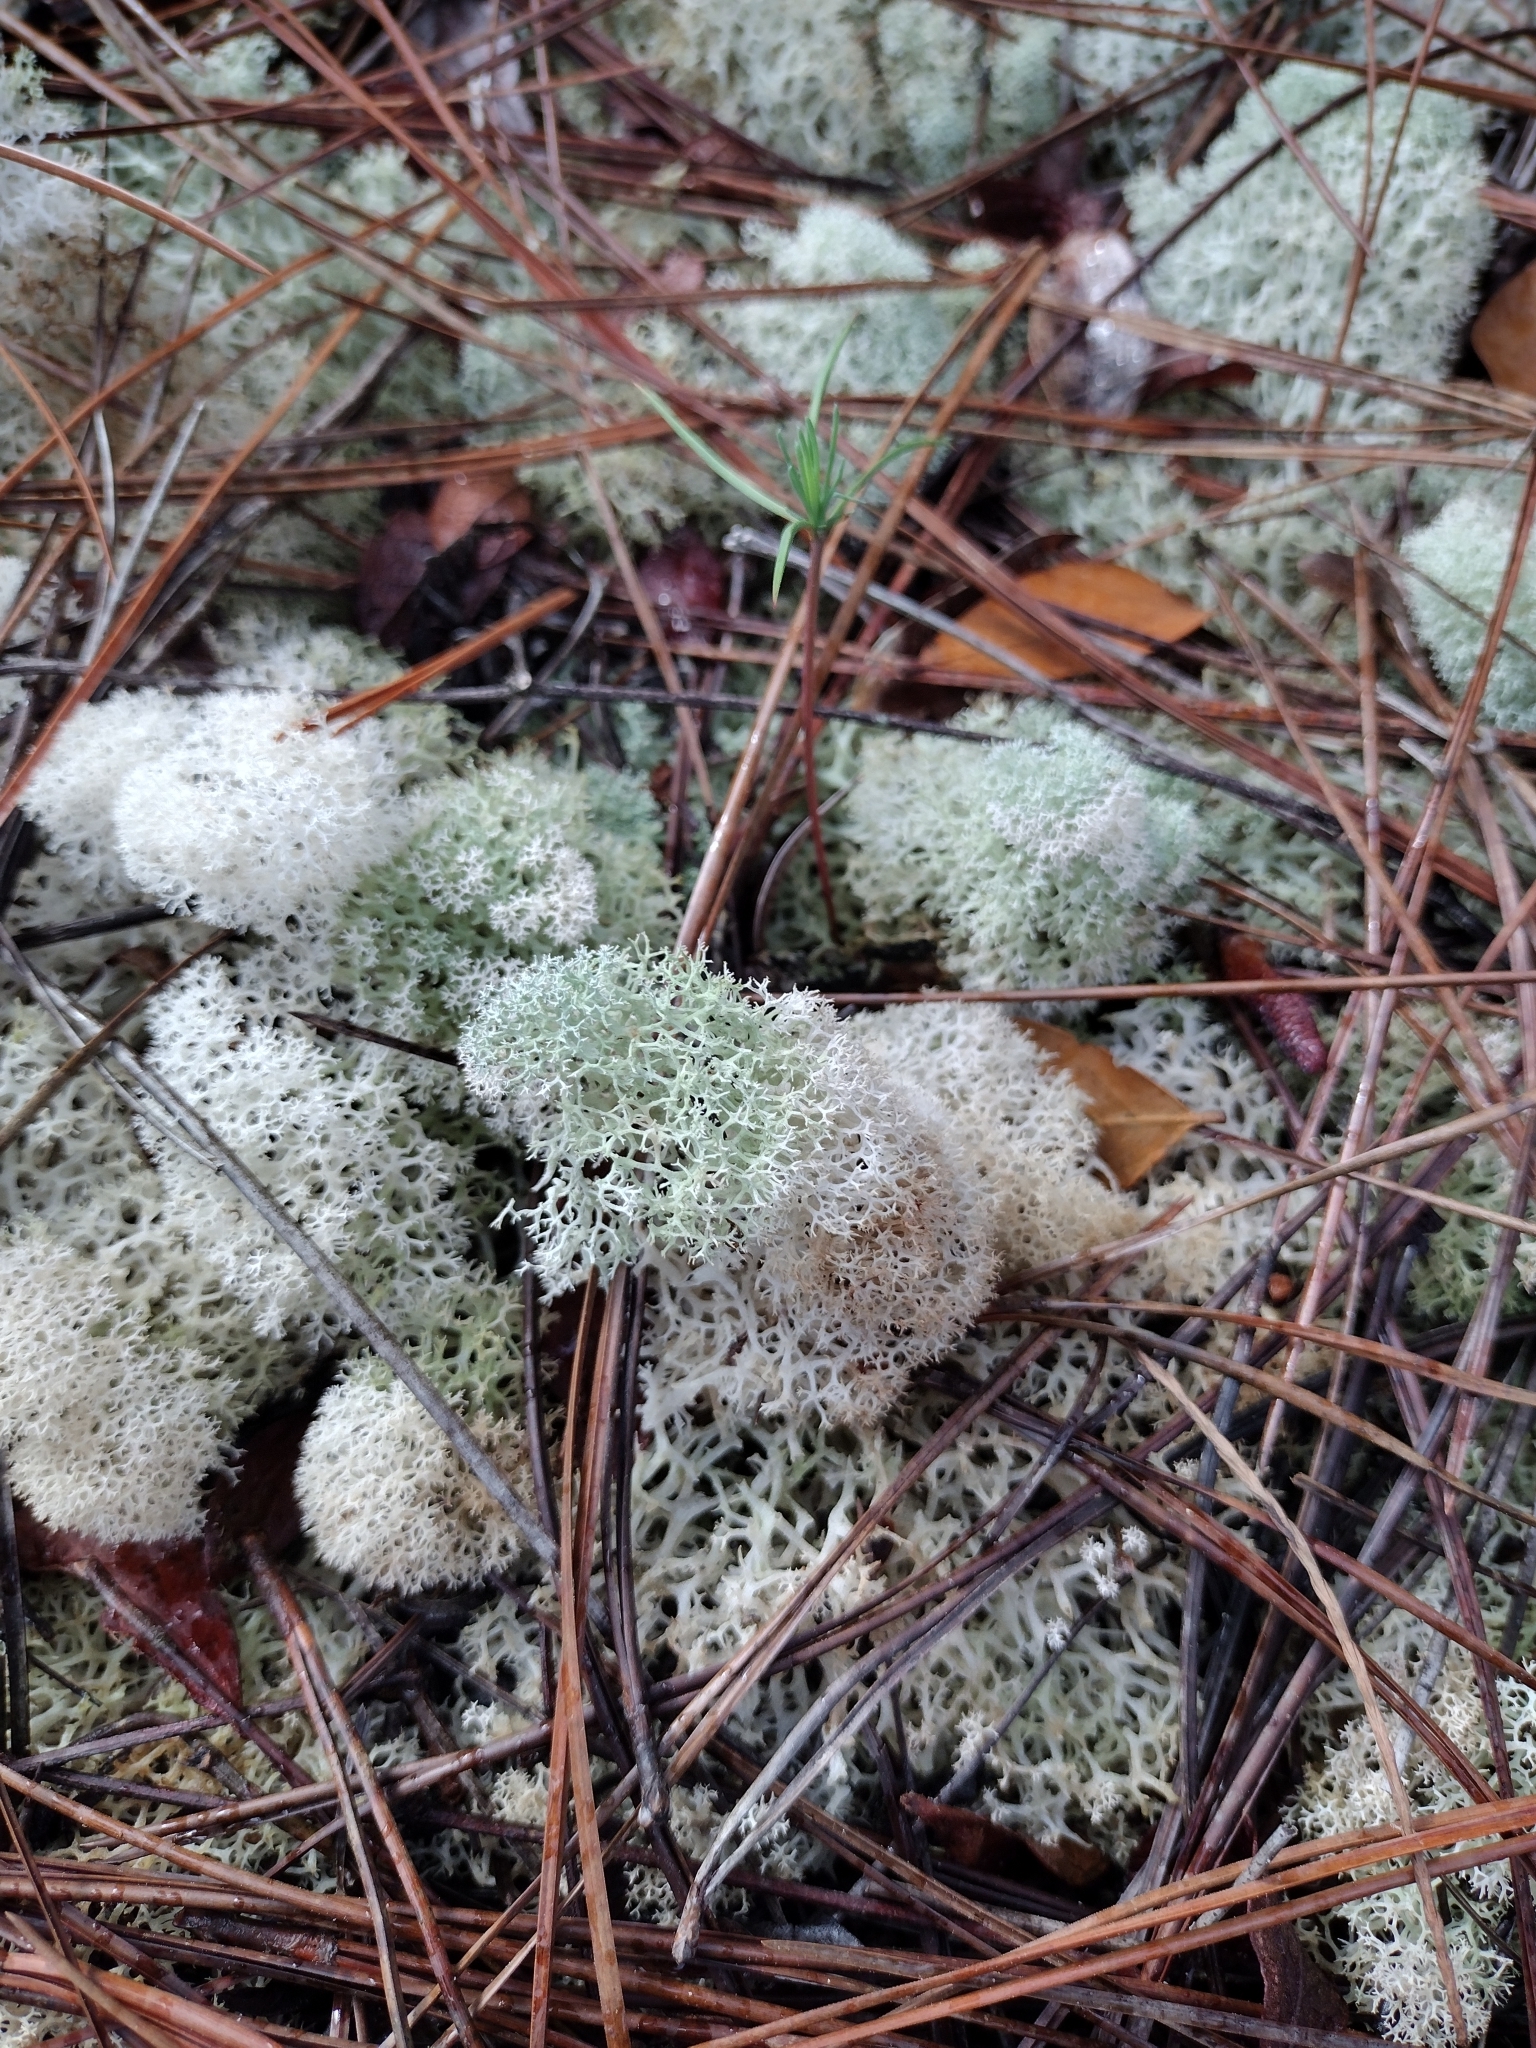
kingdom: Fungi
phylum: Ascomycota
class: Lecanoromycetes
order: Lecanorales
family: Cladoniaceae
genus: Cladonia
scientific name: Cladonia evansii
